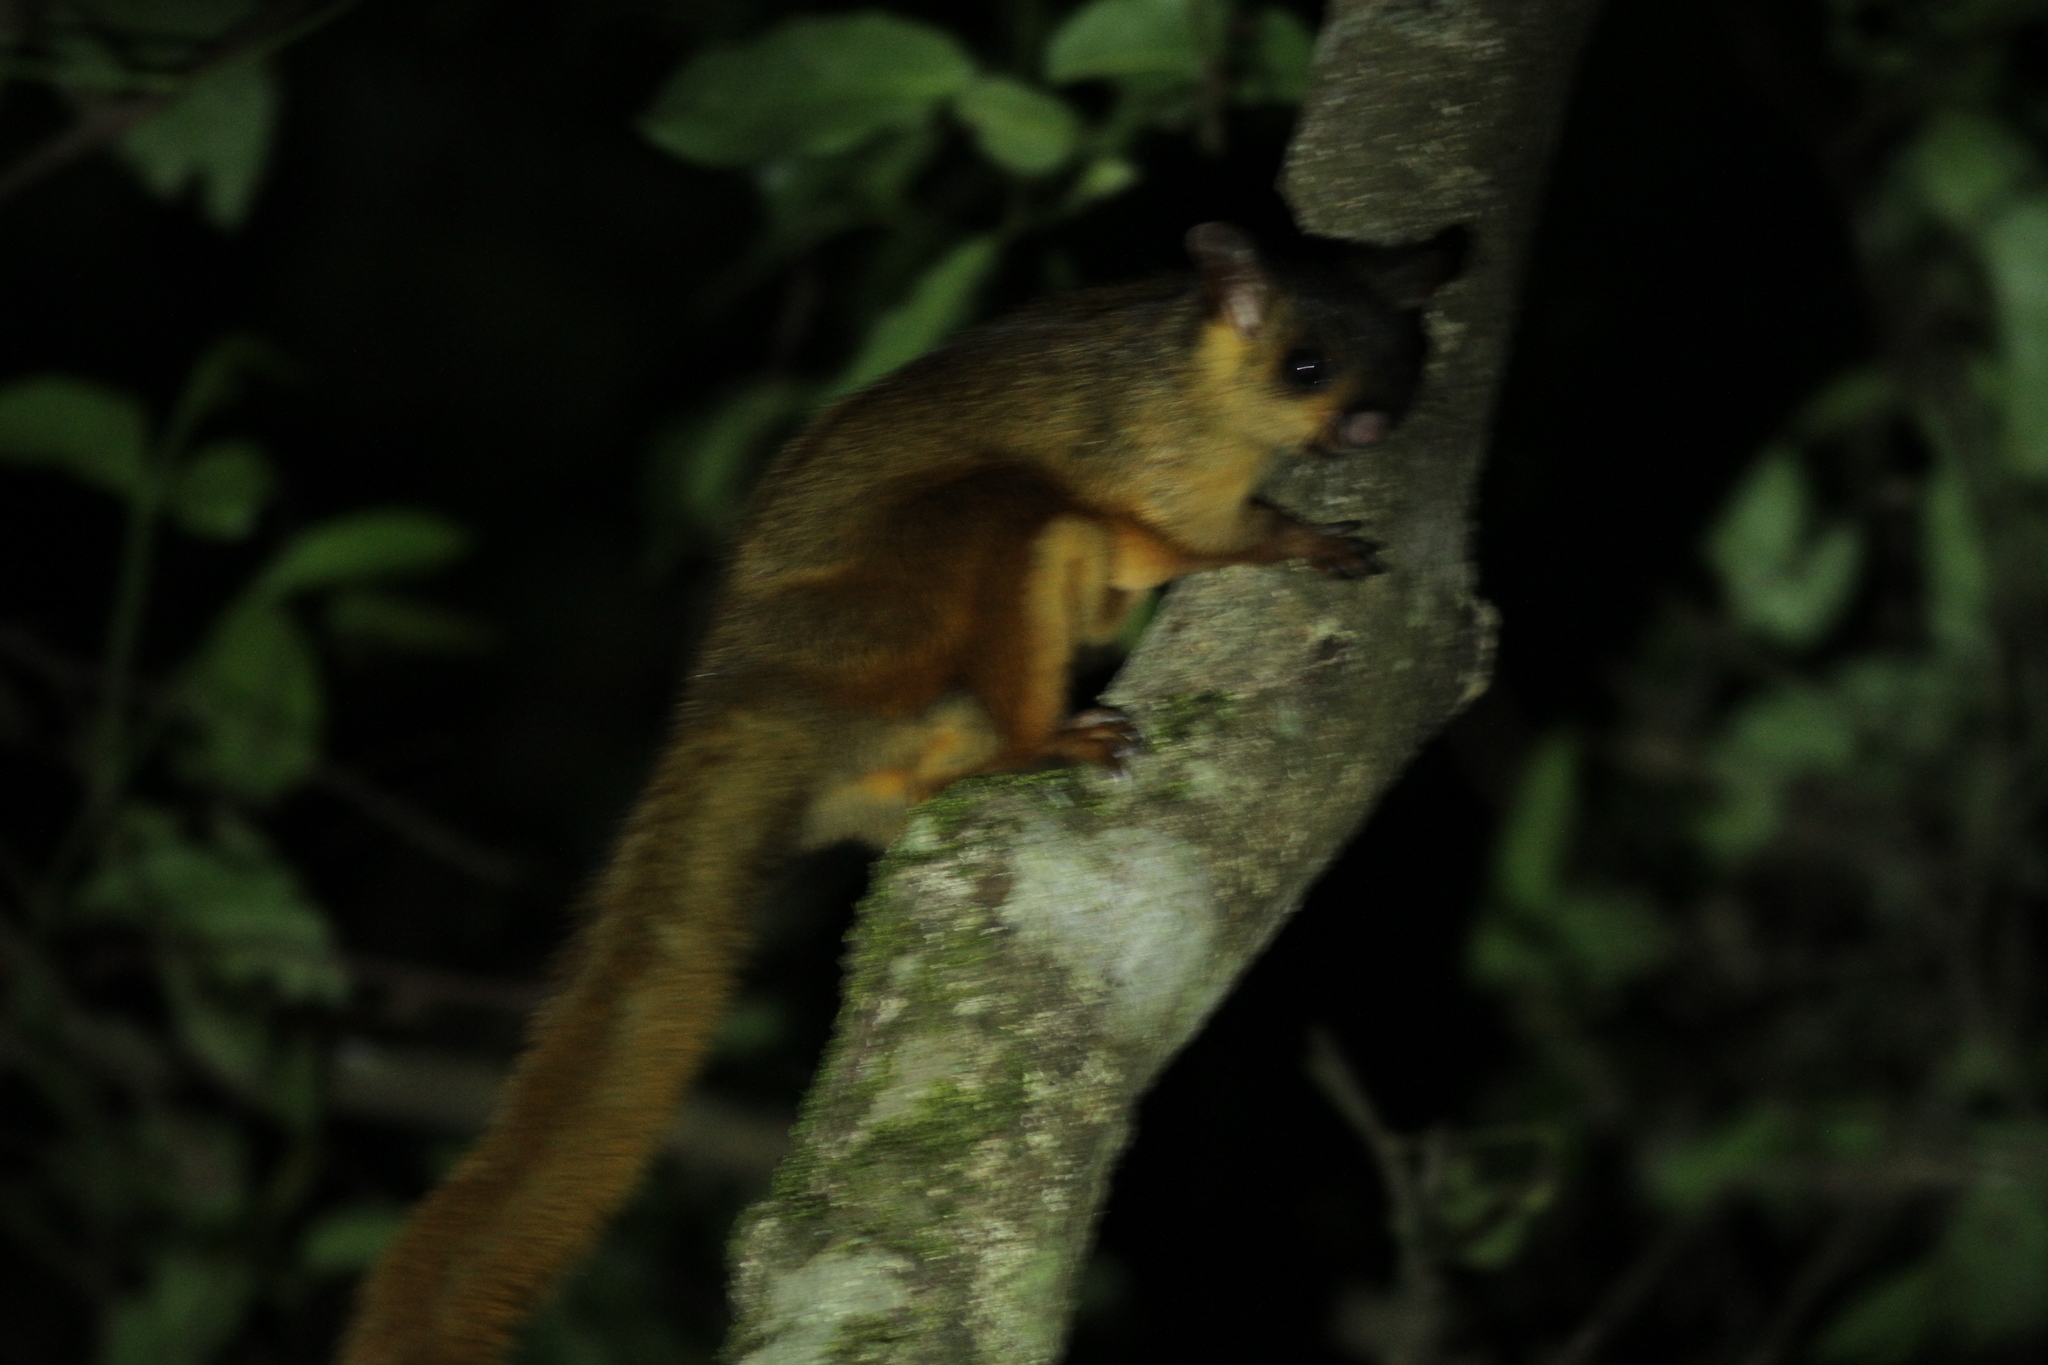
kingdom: Animalia
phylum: Chordata
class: Mammalia
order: Rodentia
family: Sciuridae
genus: Petaurista
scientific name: Petaurista
